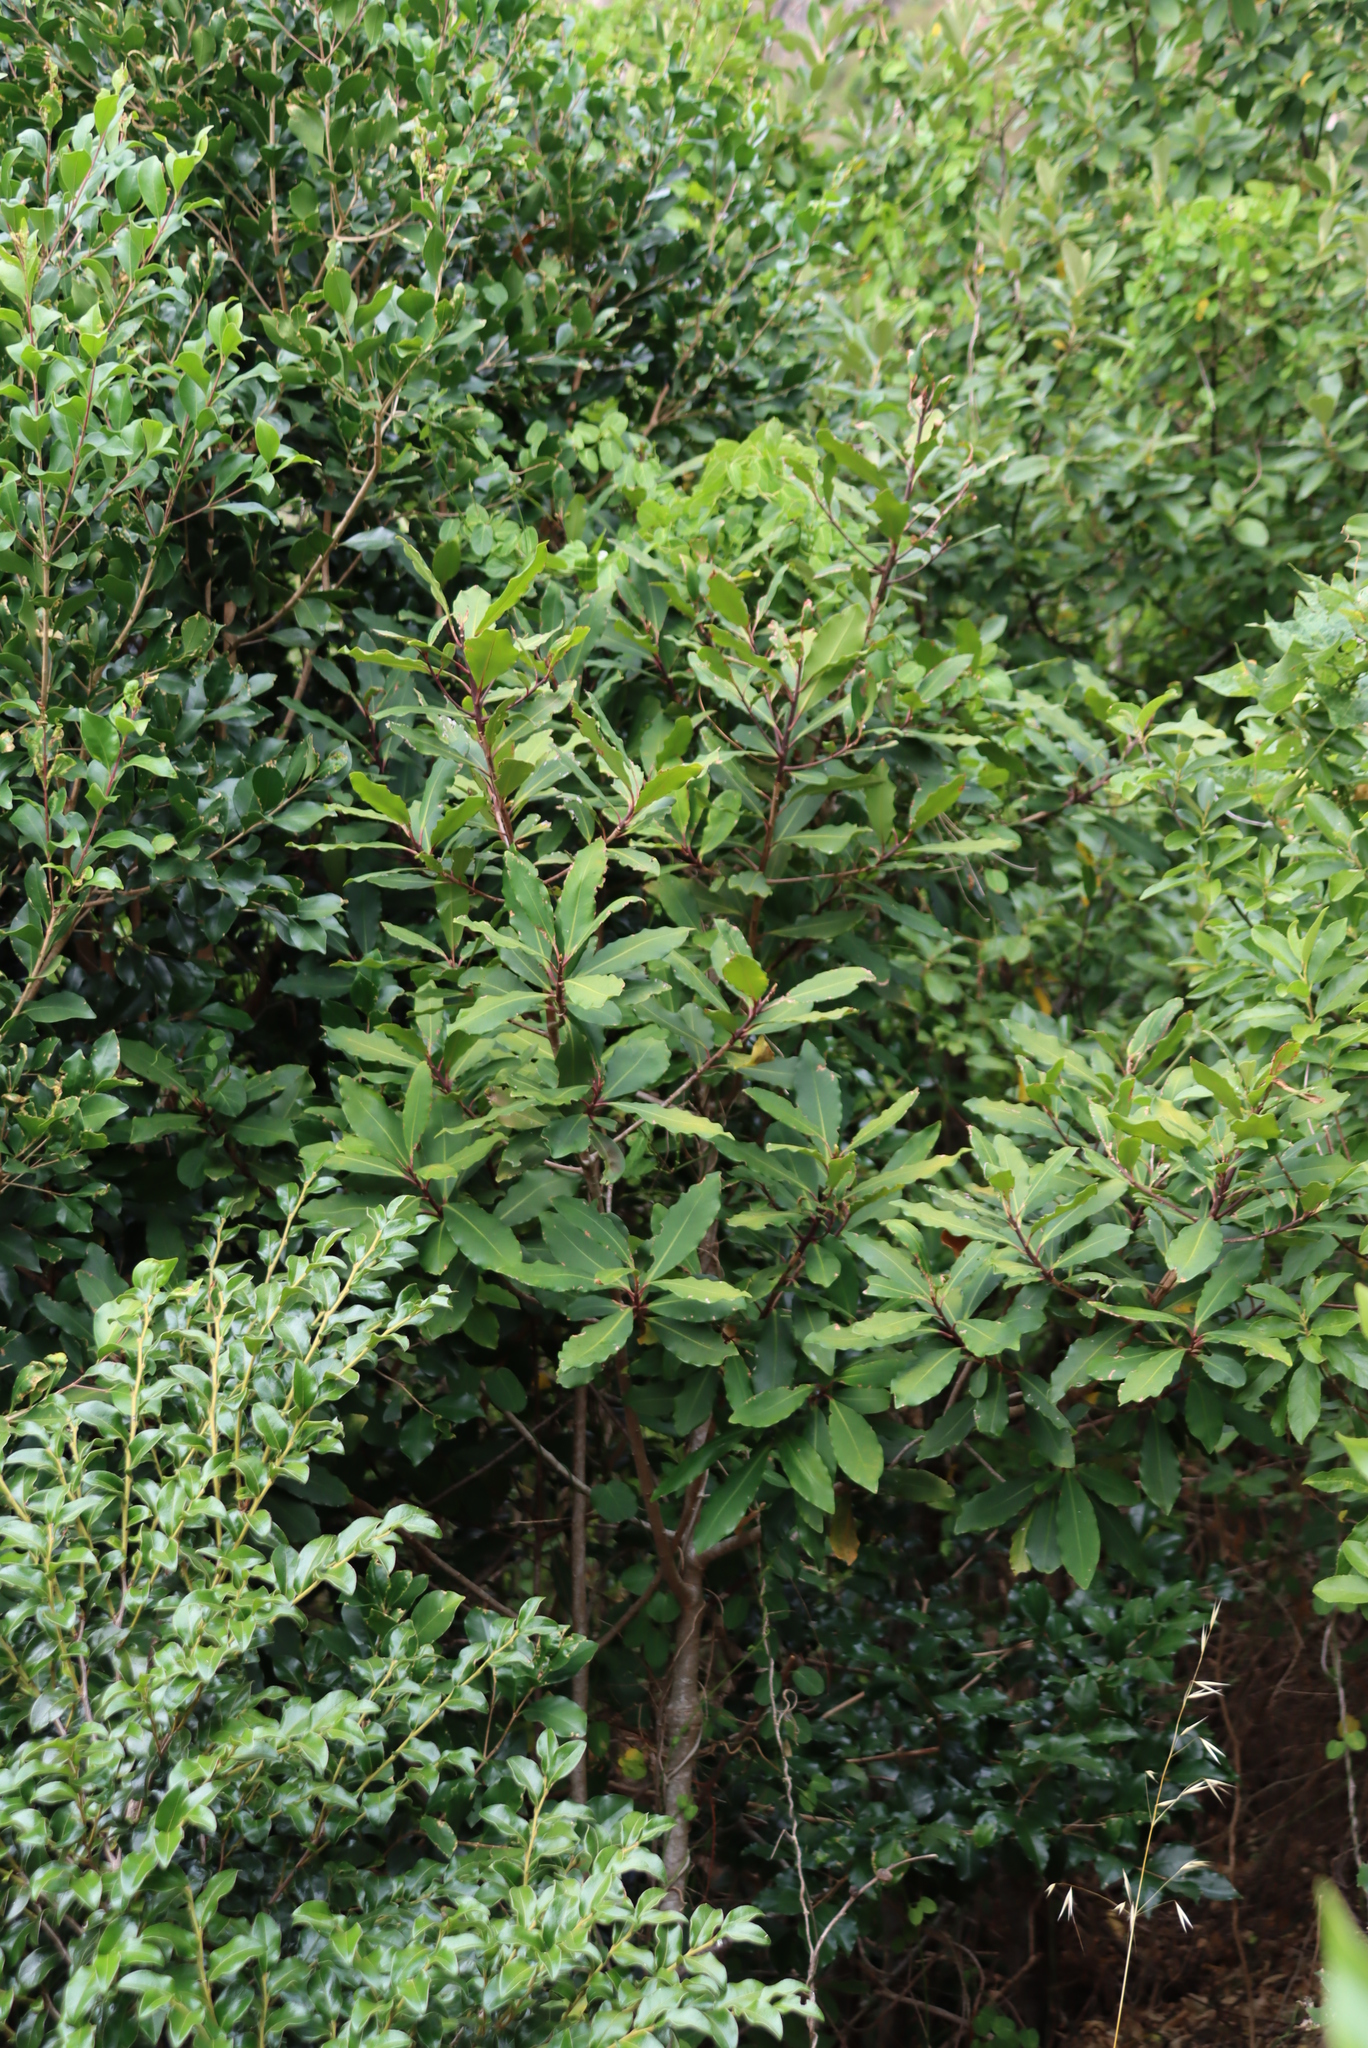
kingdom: Plantae
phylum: Tracheophyta
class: Magnoliopsida
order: Ericales
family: Primulaceae
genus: Myrsine
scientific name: Myrsine melanophloeos
